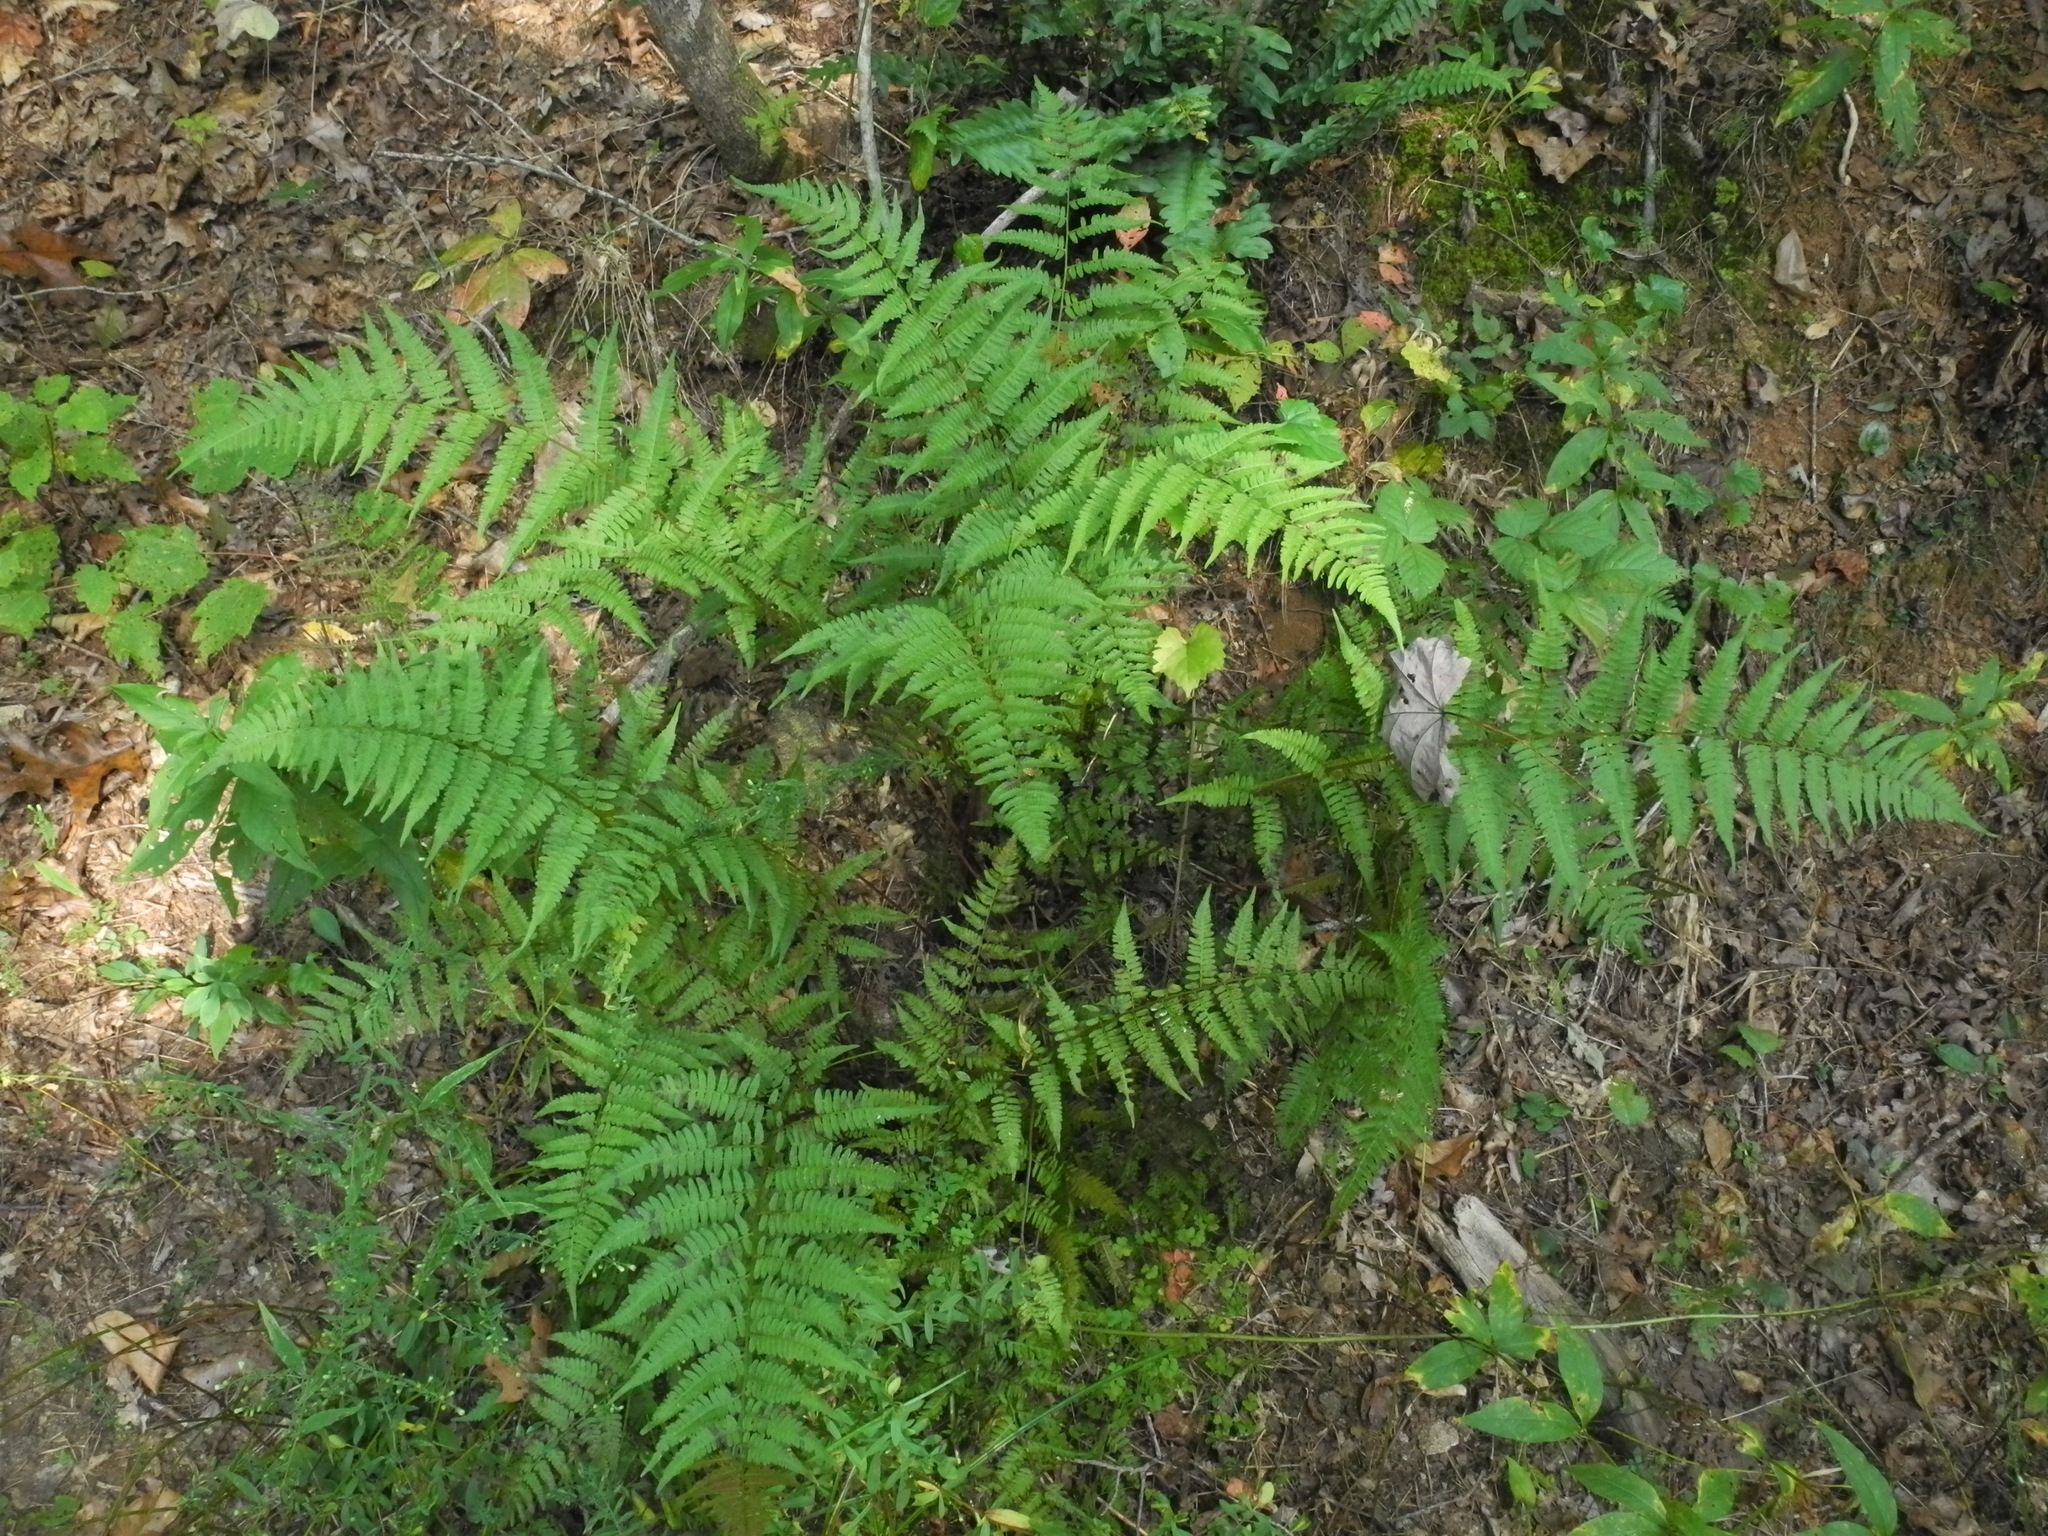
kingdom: Plantae
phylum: Tracheophyta
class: Polypodiopsida
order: Polypodiales
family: Athyriaceae
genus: Athyrium
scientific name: Athyrium asplenioides
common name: Southern lady fern
